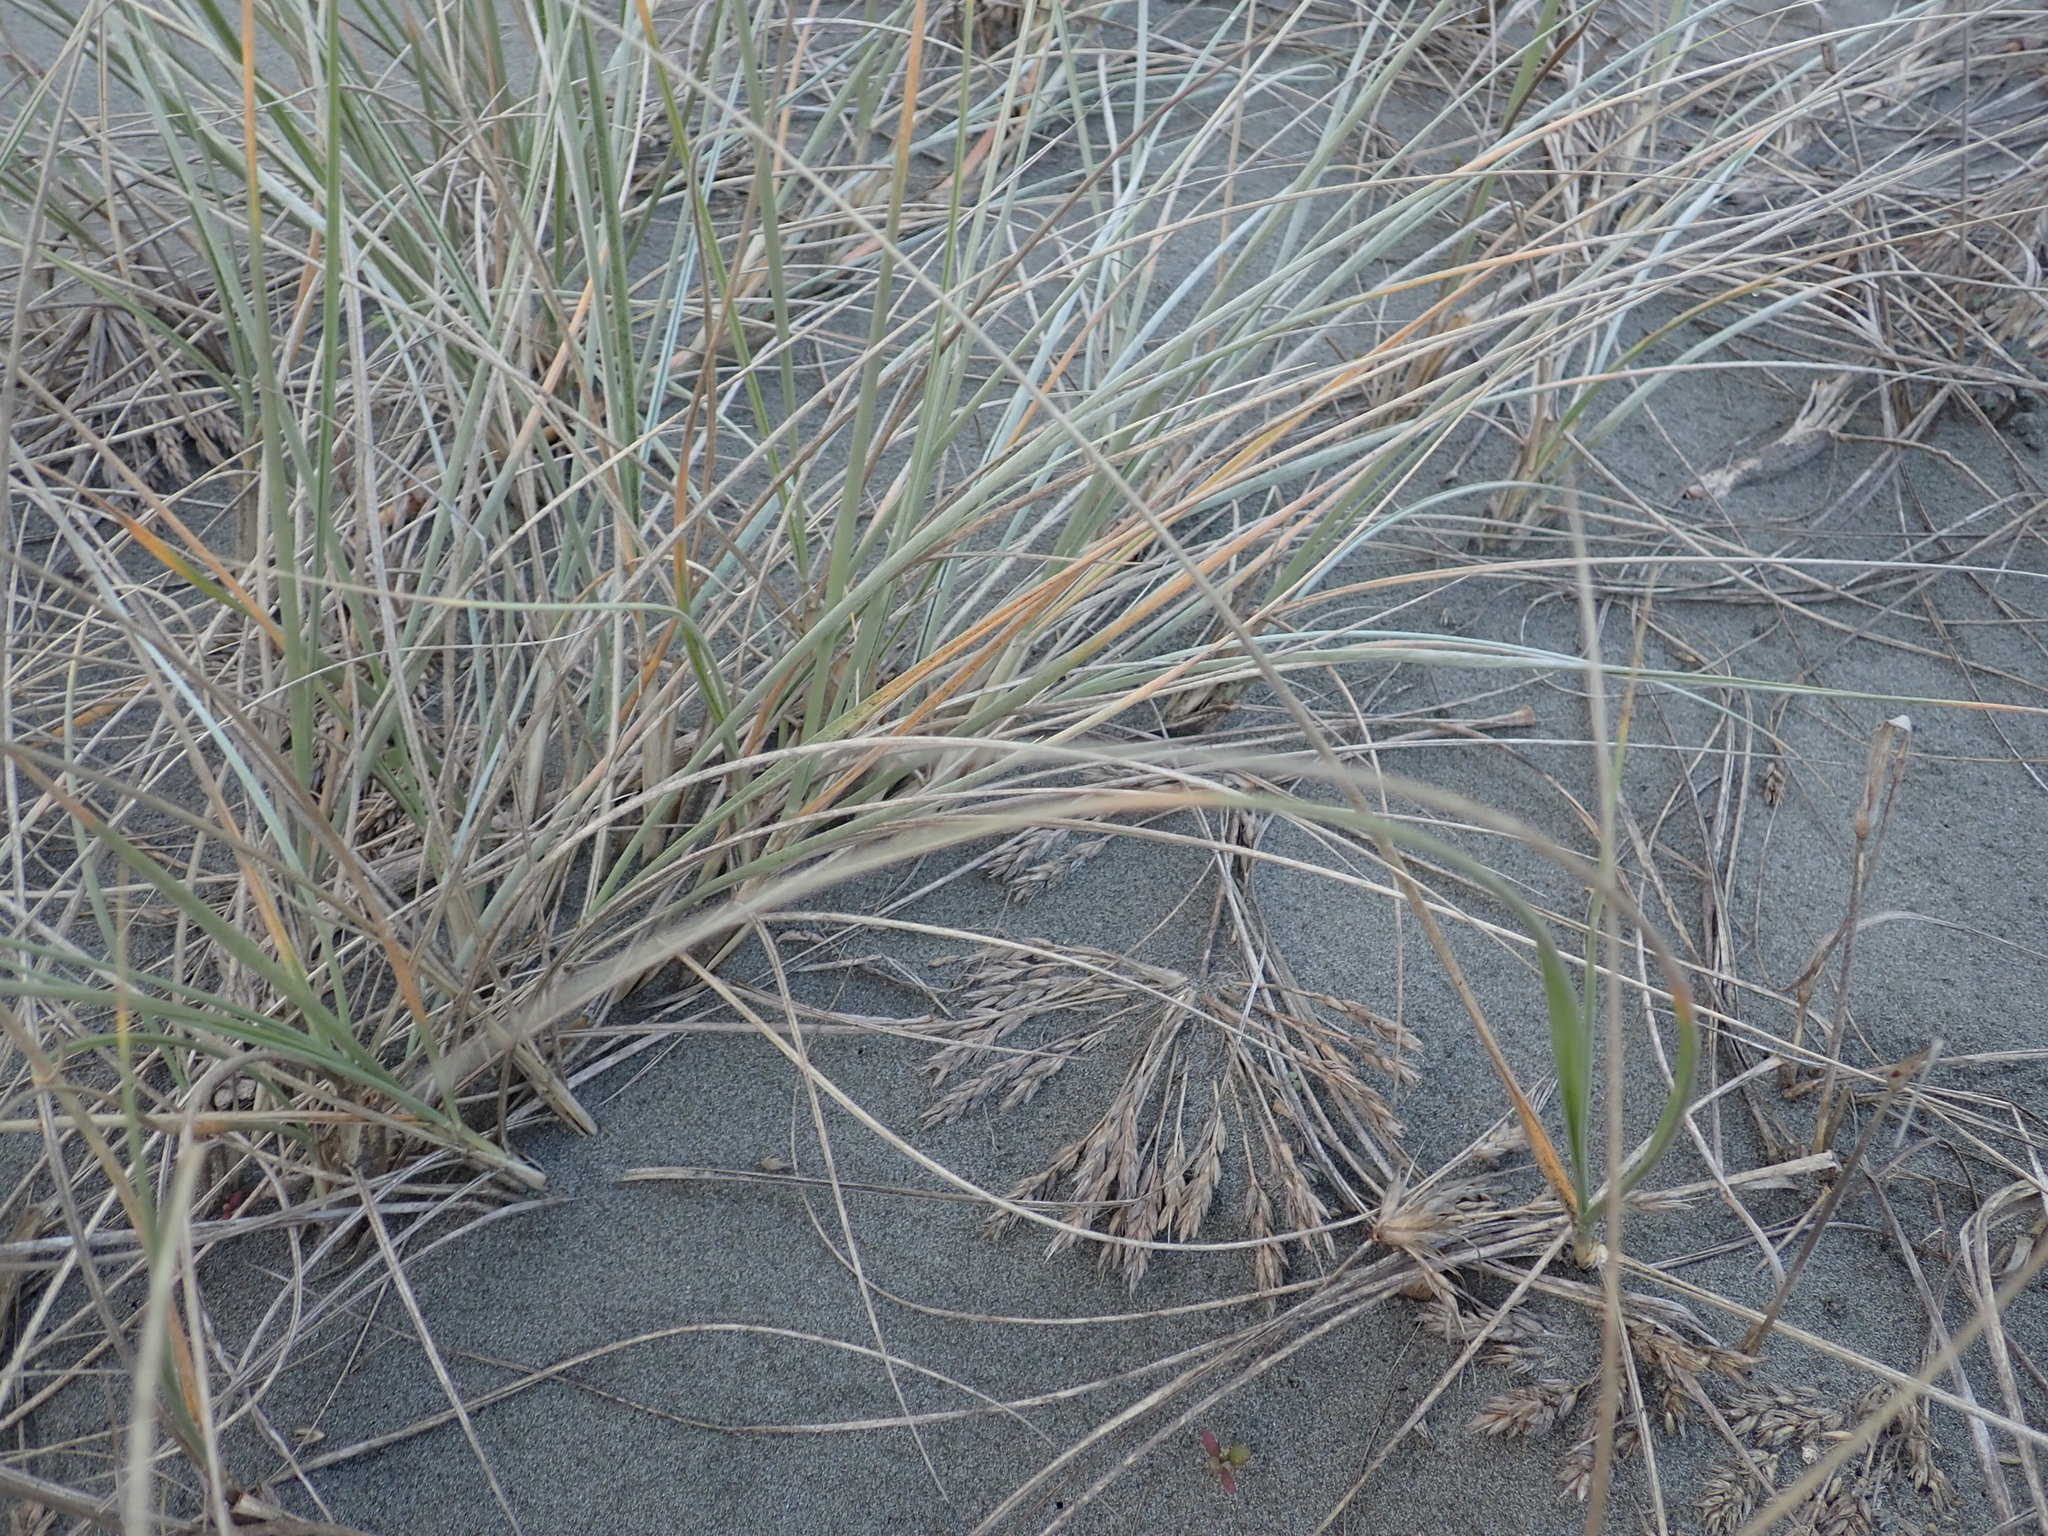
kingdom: Plantae
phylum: Tracheophyta
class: Liliopsida
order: Poales
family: Poaceae
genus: Spinifex
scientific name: Spinifex sericeus
